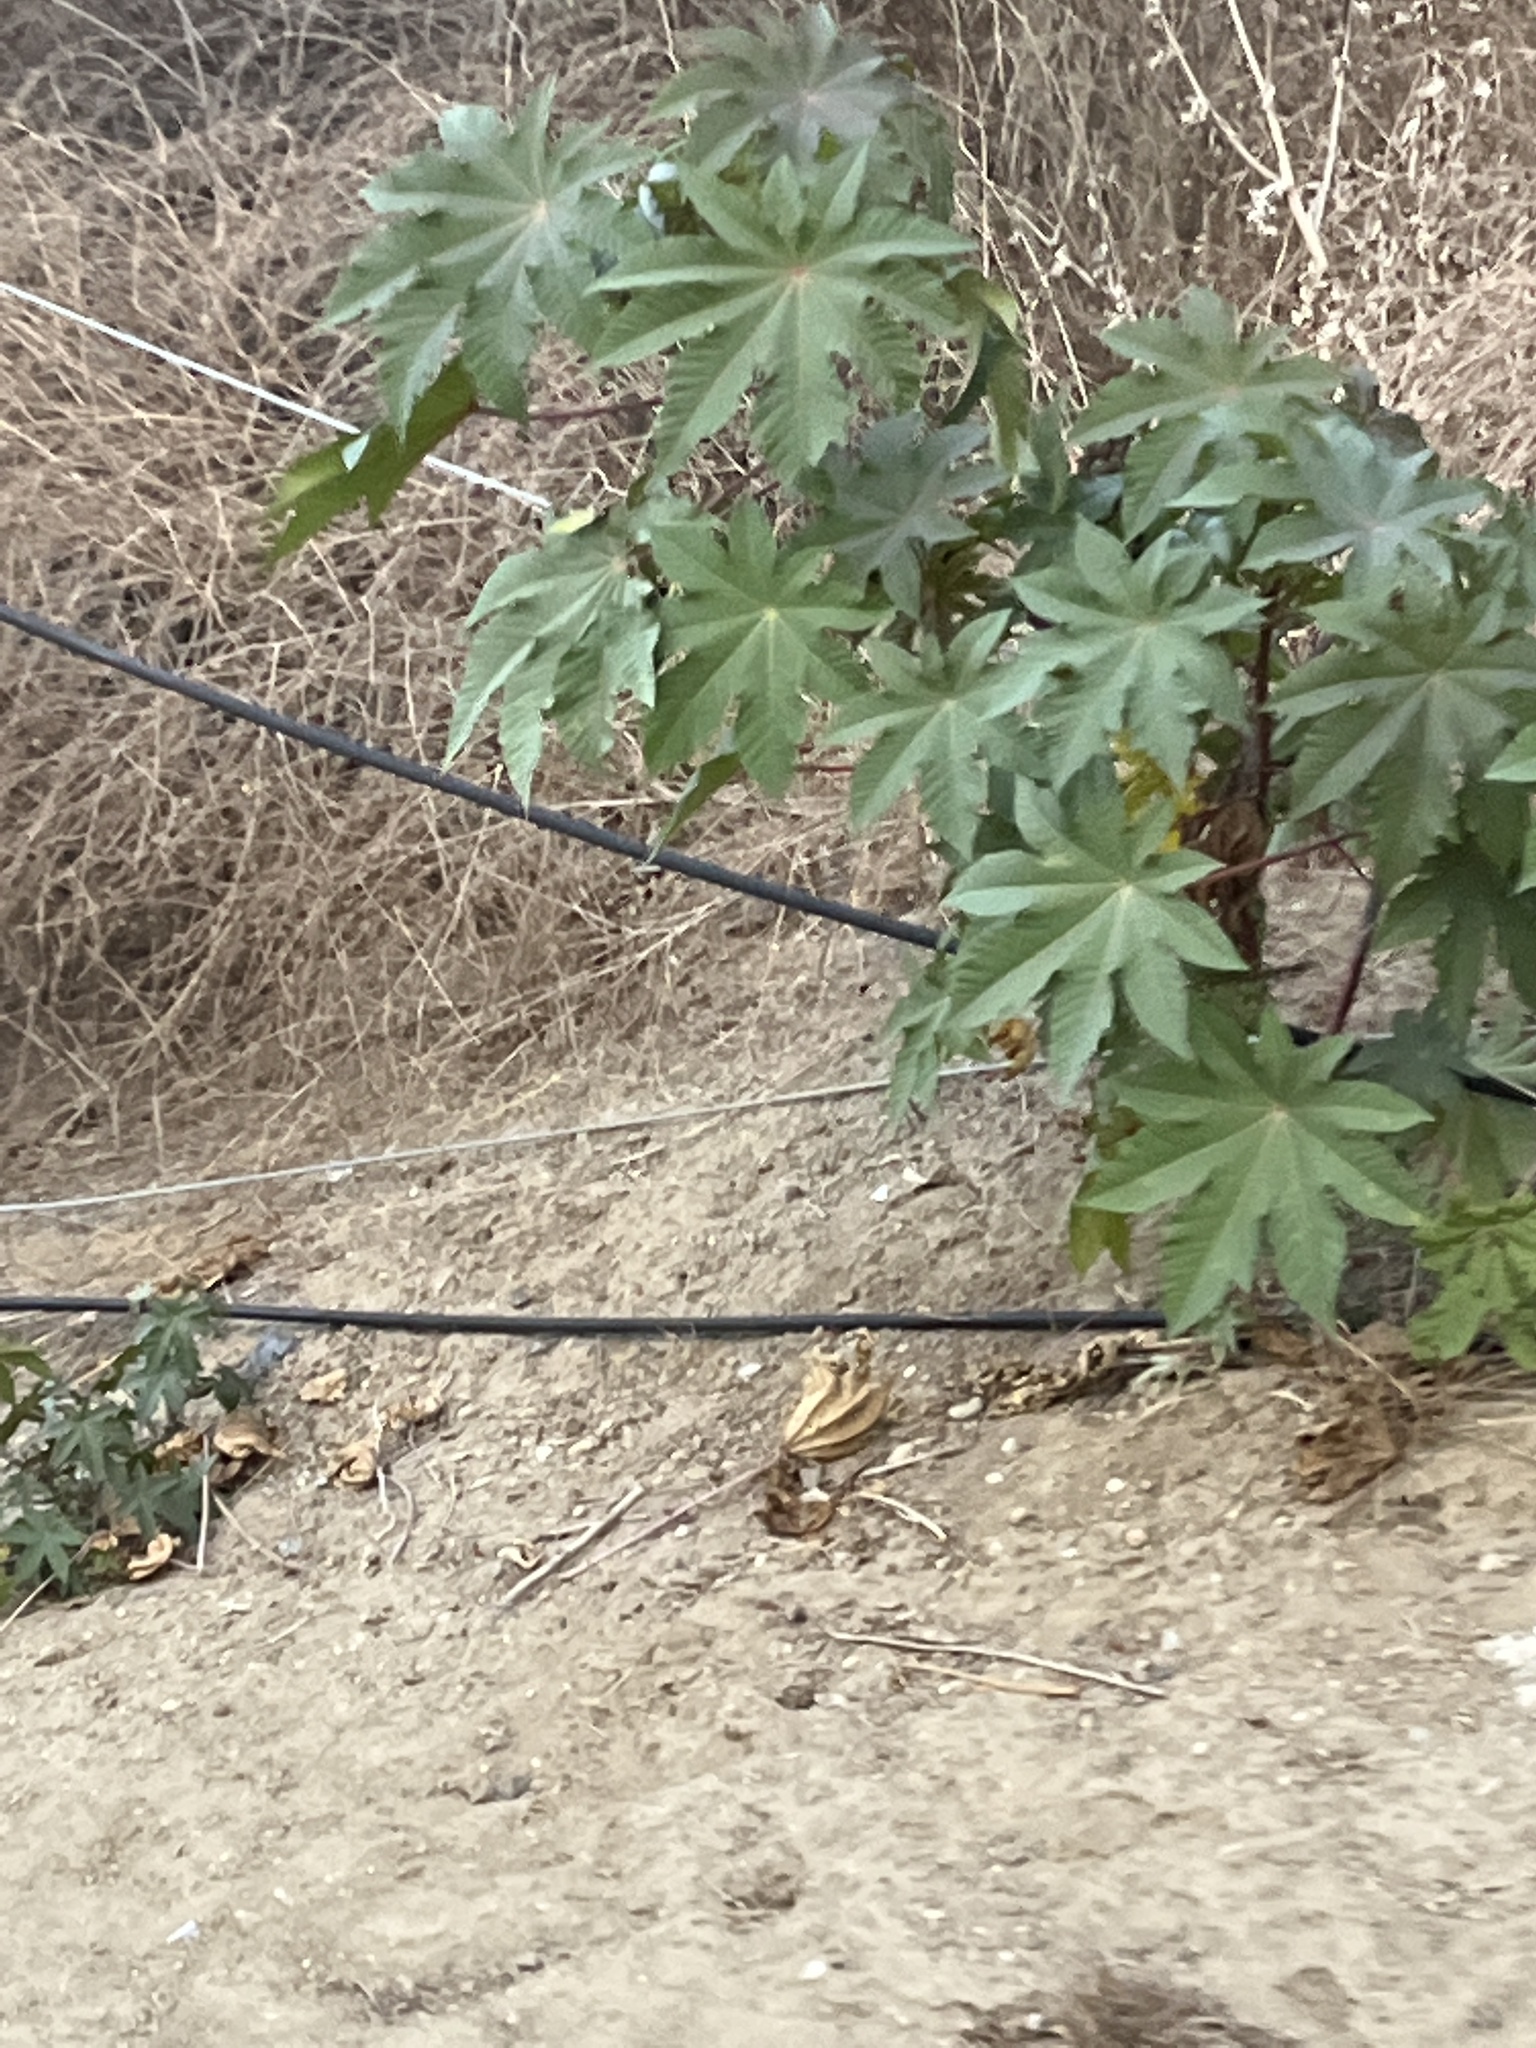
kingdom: Plantae
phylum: Tracheophyta
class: Magnoliopsida
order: Malpighiales
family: Euphorbiaceae
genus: Ricinus
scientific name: Ricinus communis
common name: Castor-oil-plant
